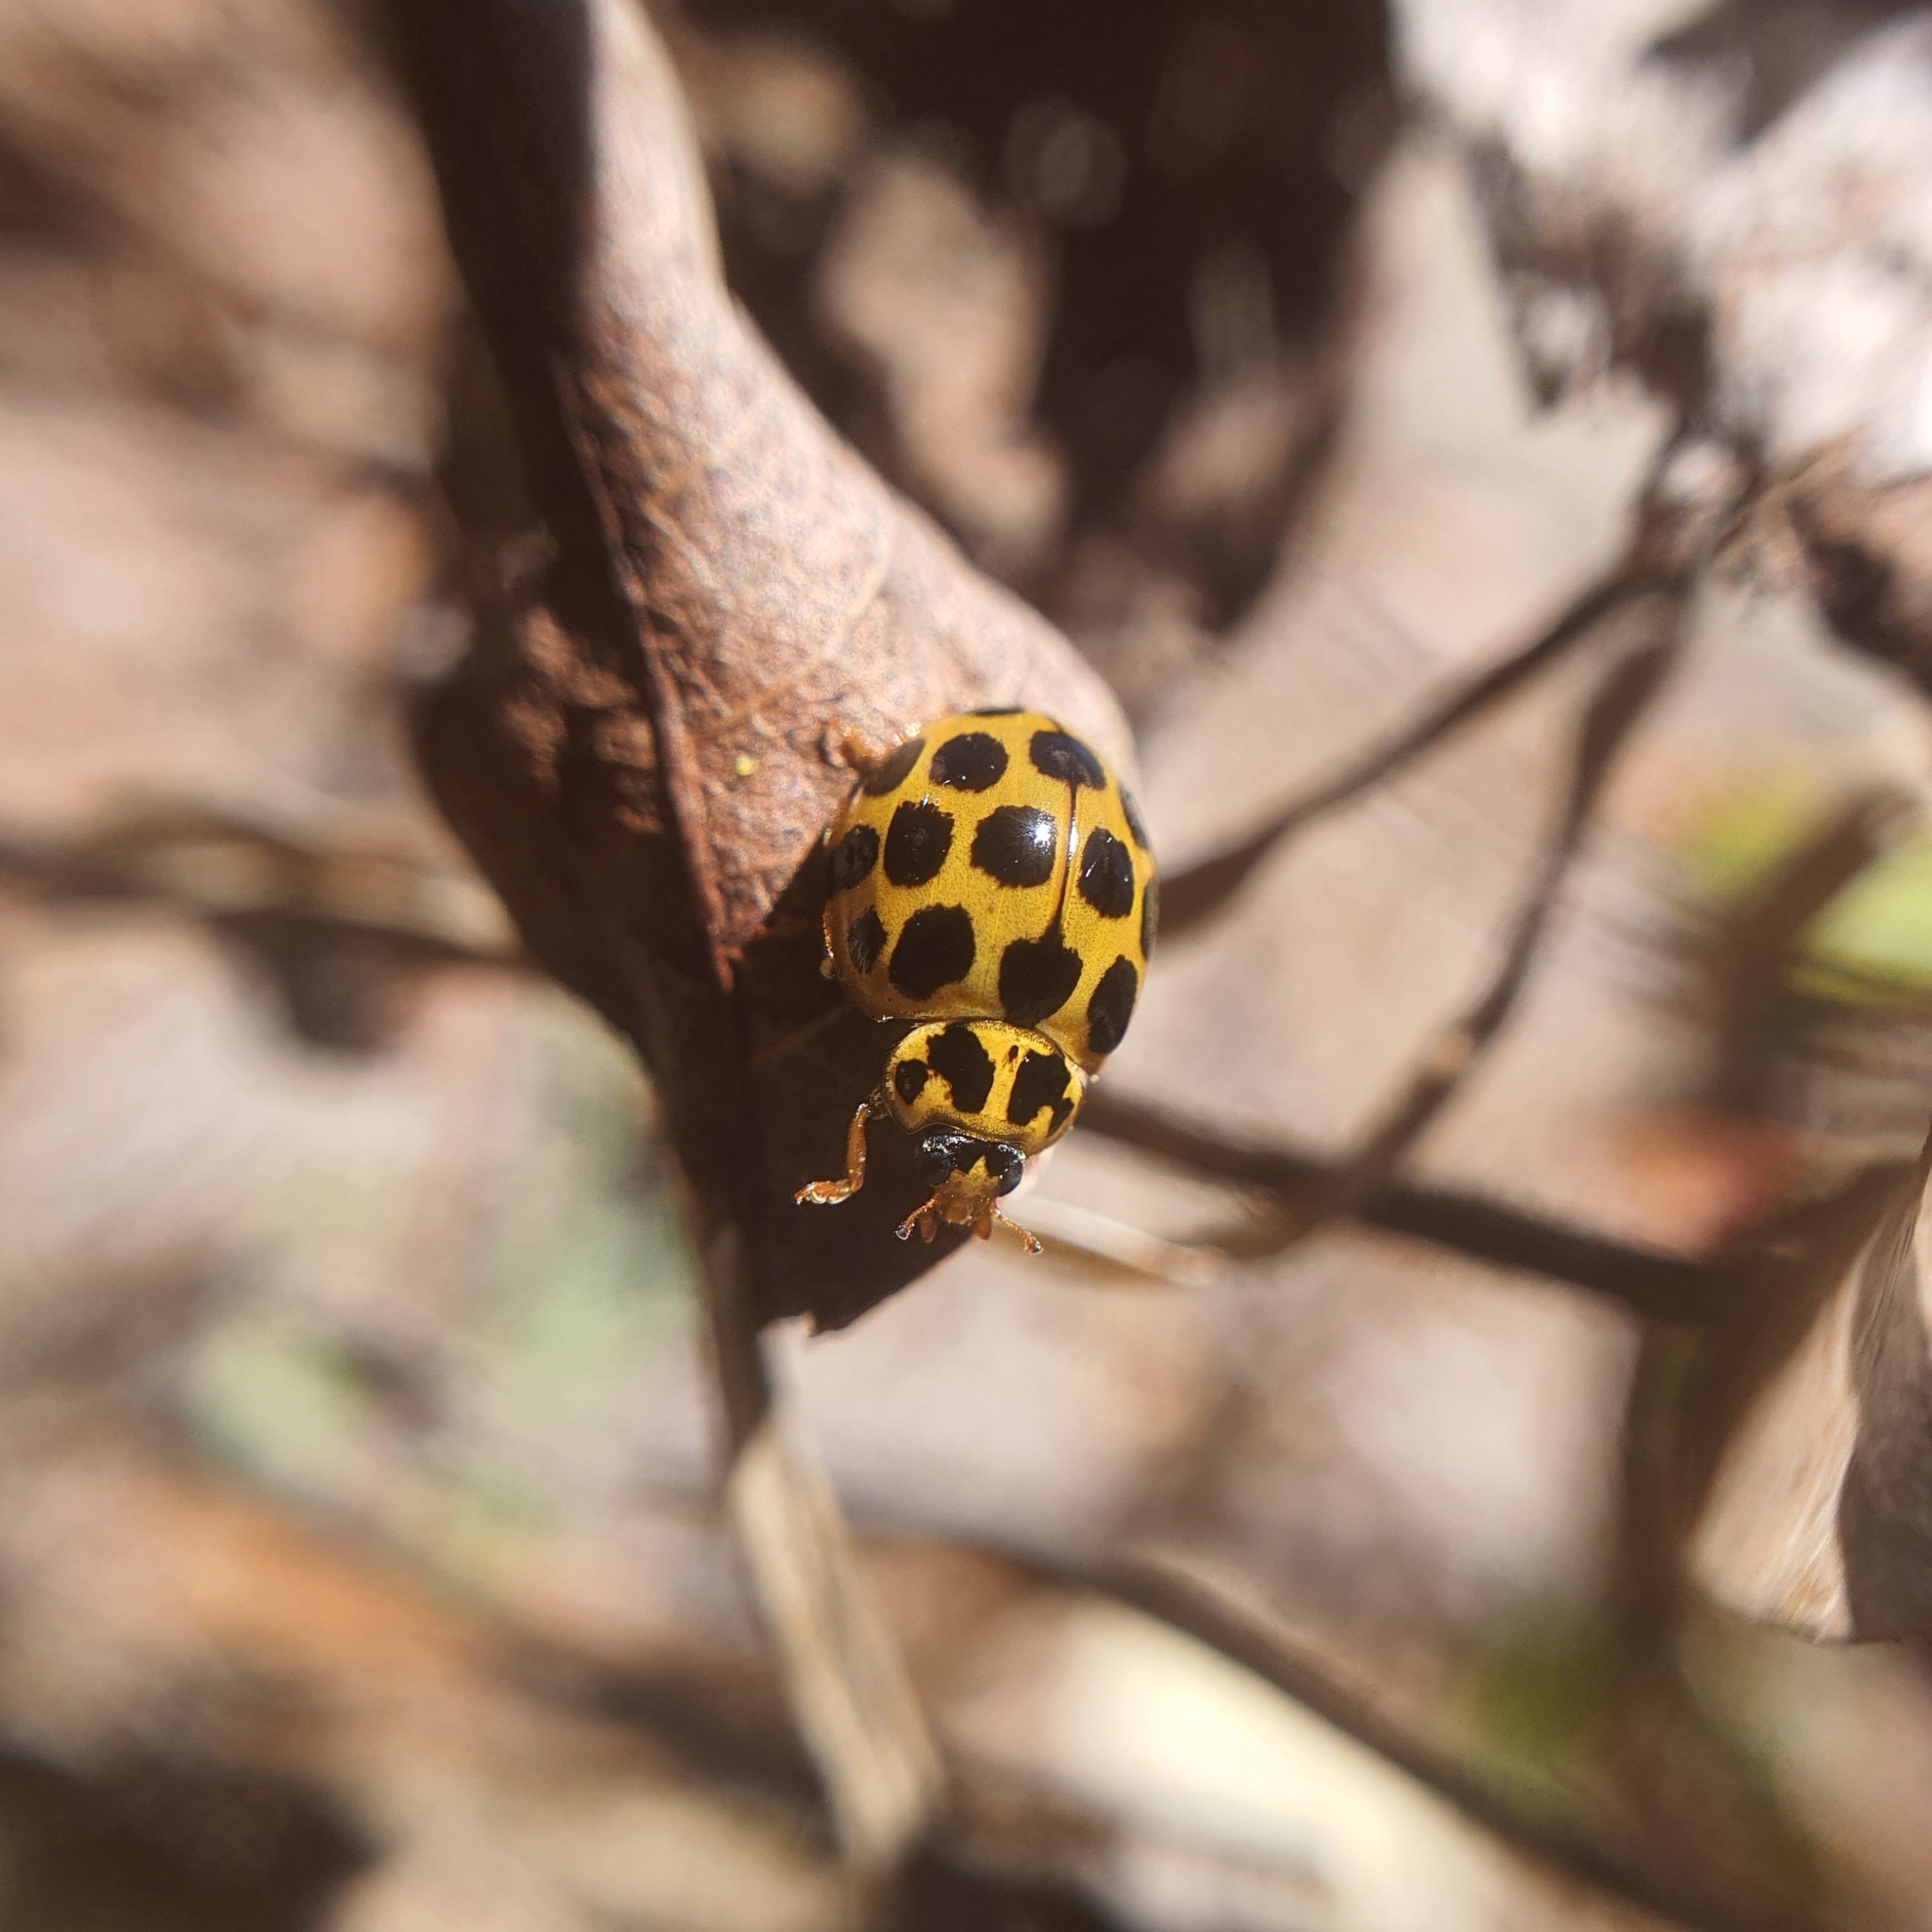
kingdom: Animalia
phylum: Arthropoda
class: Insecta
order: Coleoptera
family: Coccinellidae
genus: Harmonia
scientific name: Harmonia conformis
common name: Common spotted ladybird beetle
